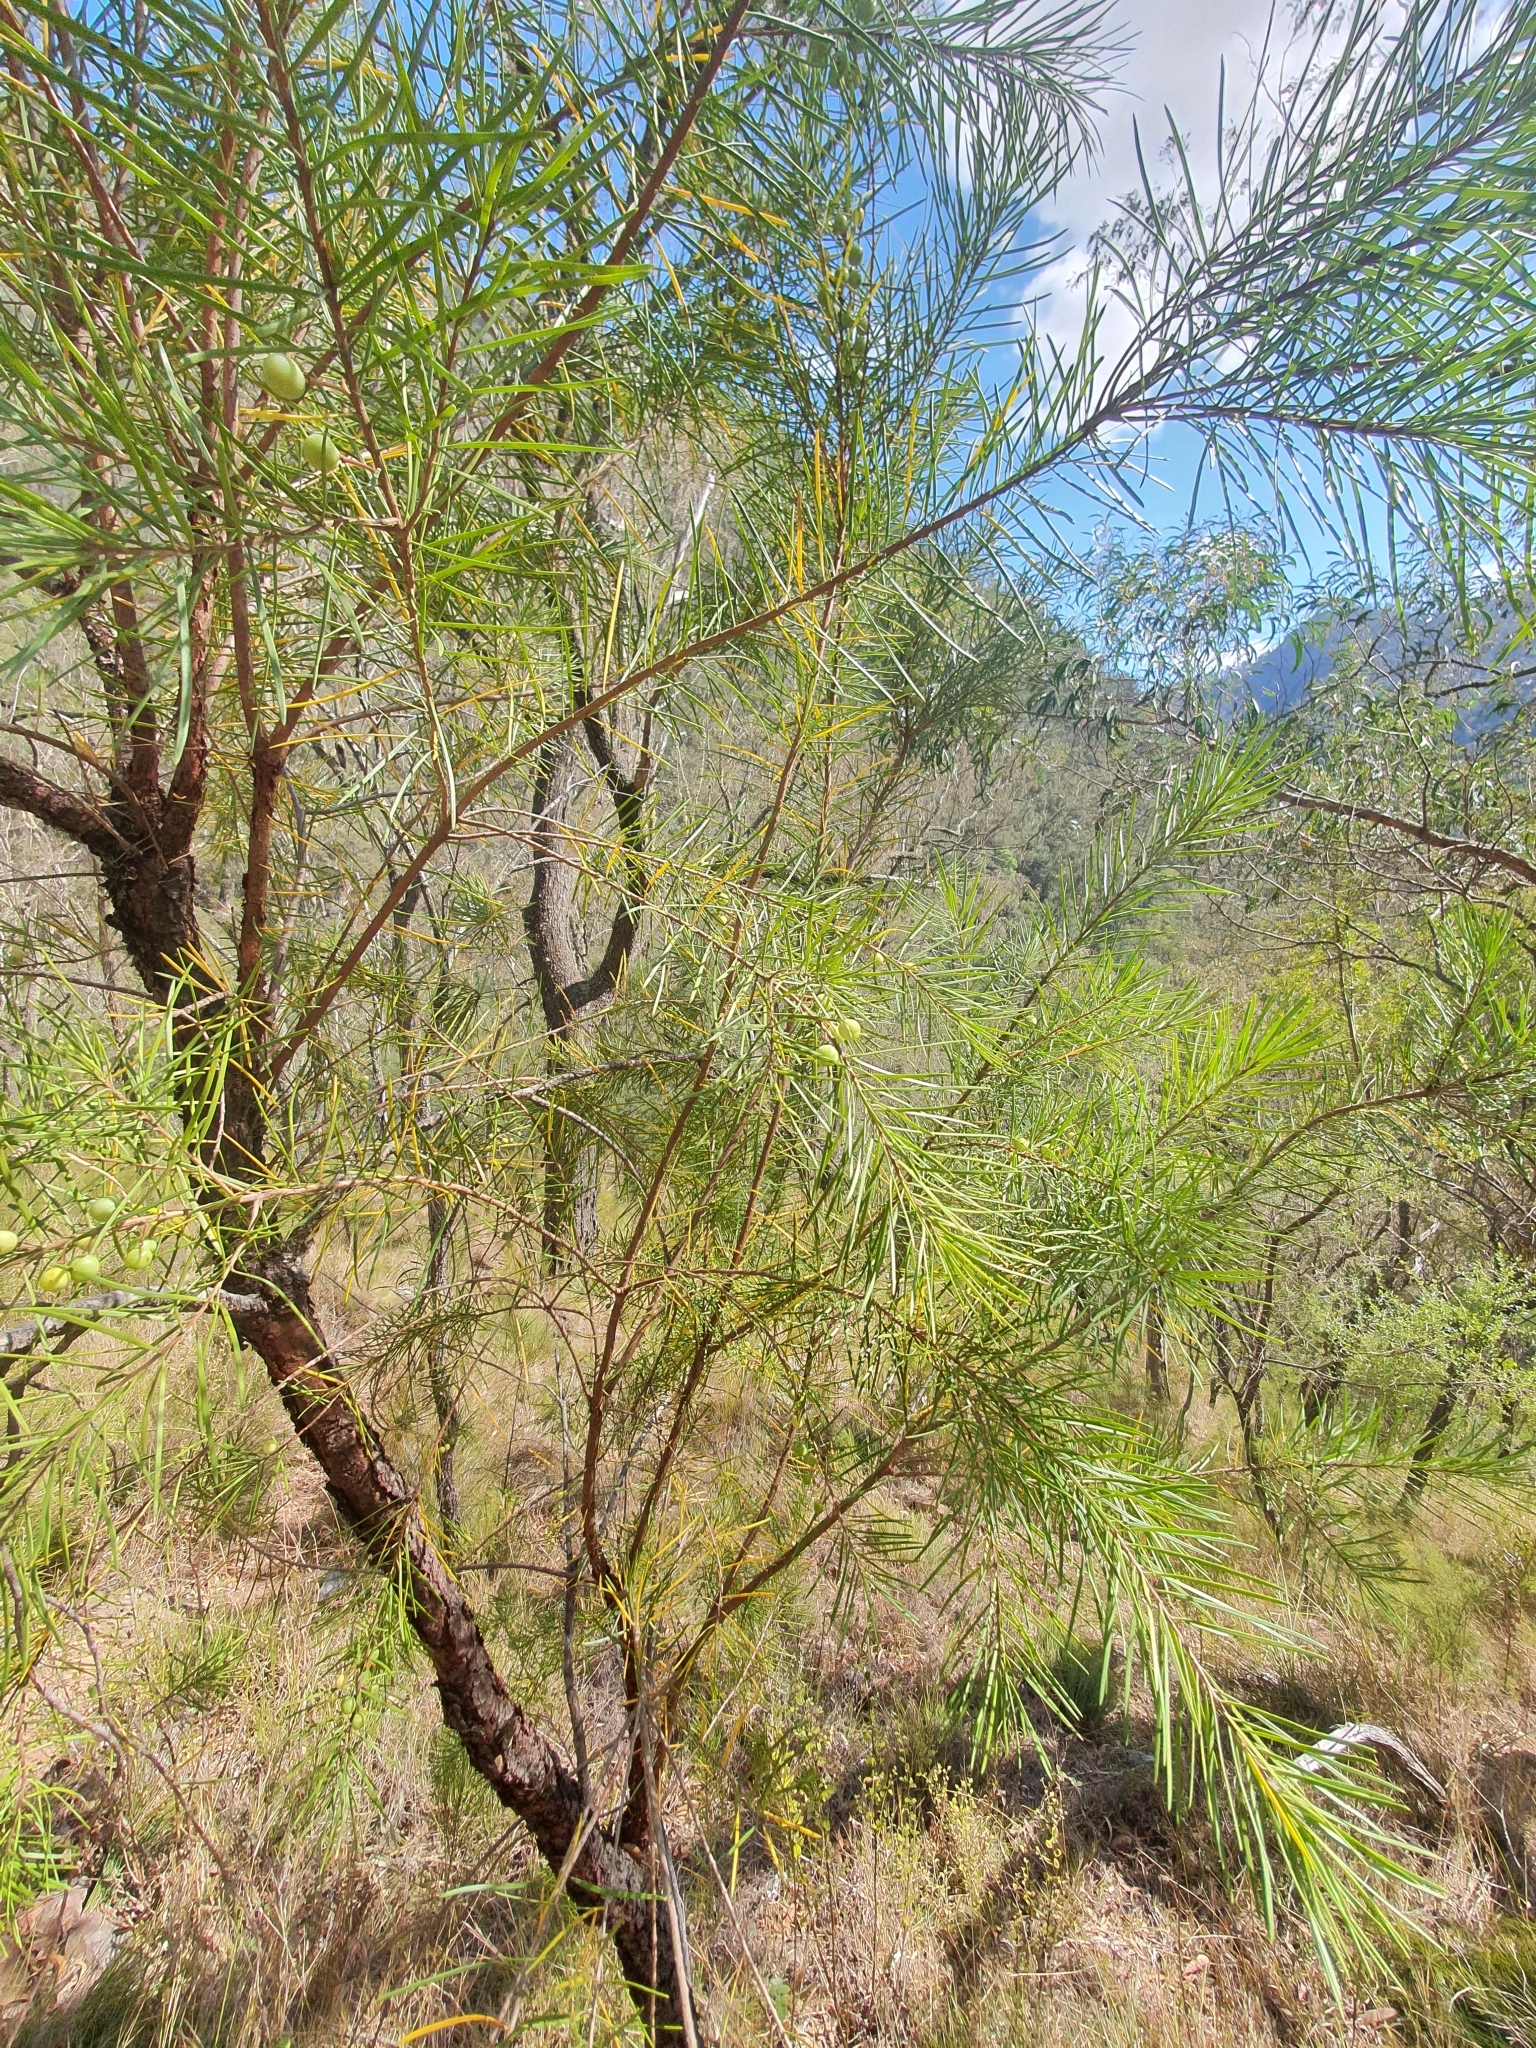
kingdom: Plantae
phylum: Tracheophyta
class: Magnoliopsida
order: Proteales
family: Proteaceae
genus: Persoonia
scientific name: Persoonia linearis
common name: Narrow-leaf geebung
